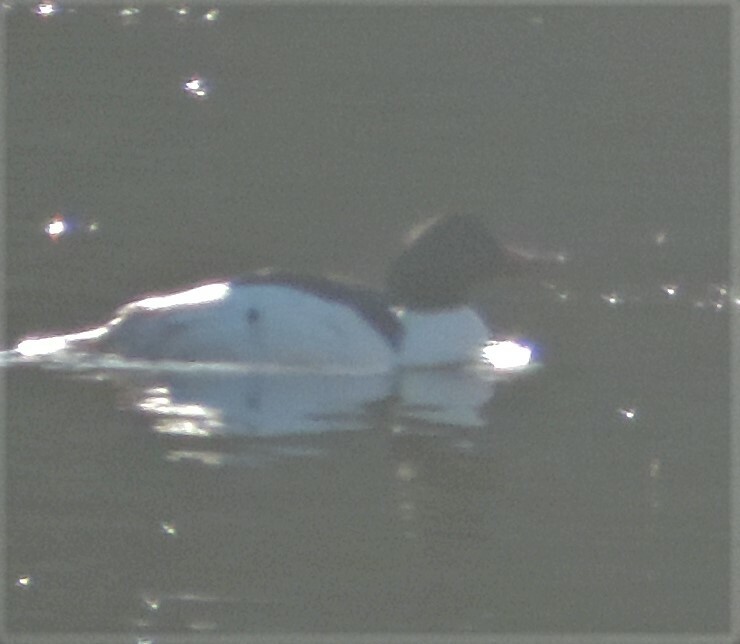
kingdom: Animalia
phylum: Chordata
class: Aves
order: Anseriformes
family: Anatidae
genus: Mergus
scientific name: Mergus merganser
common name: Common merganser
